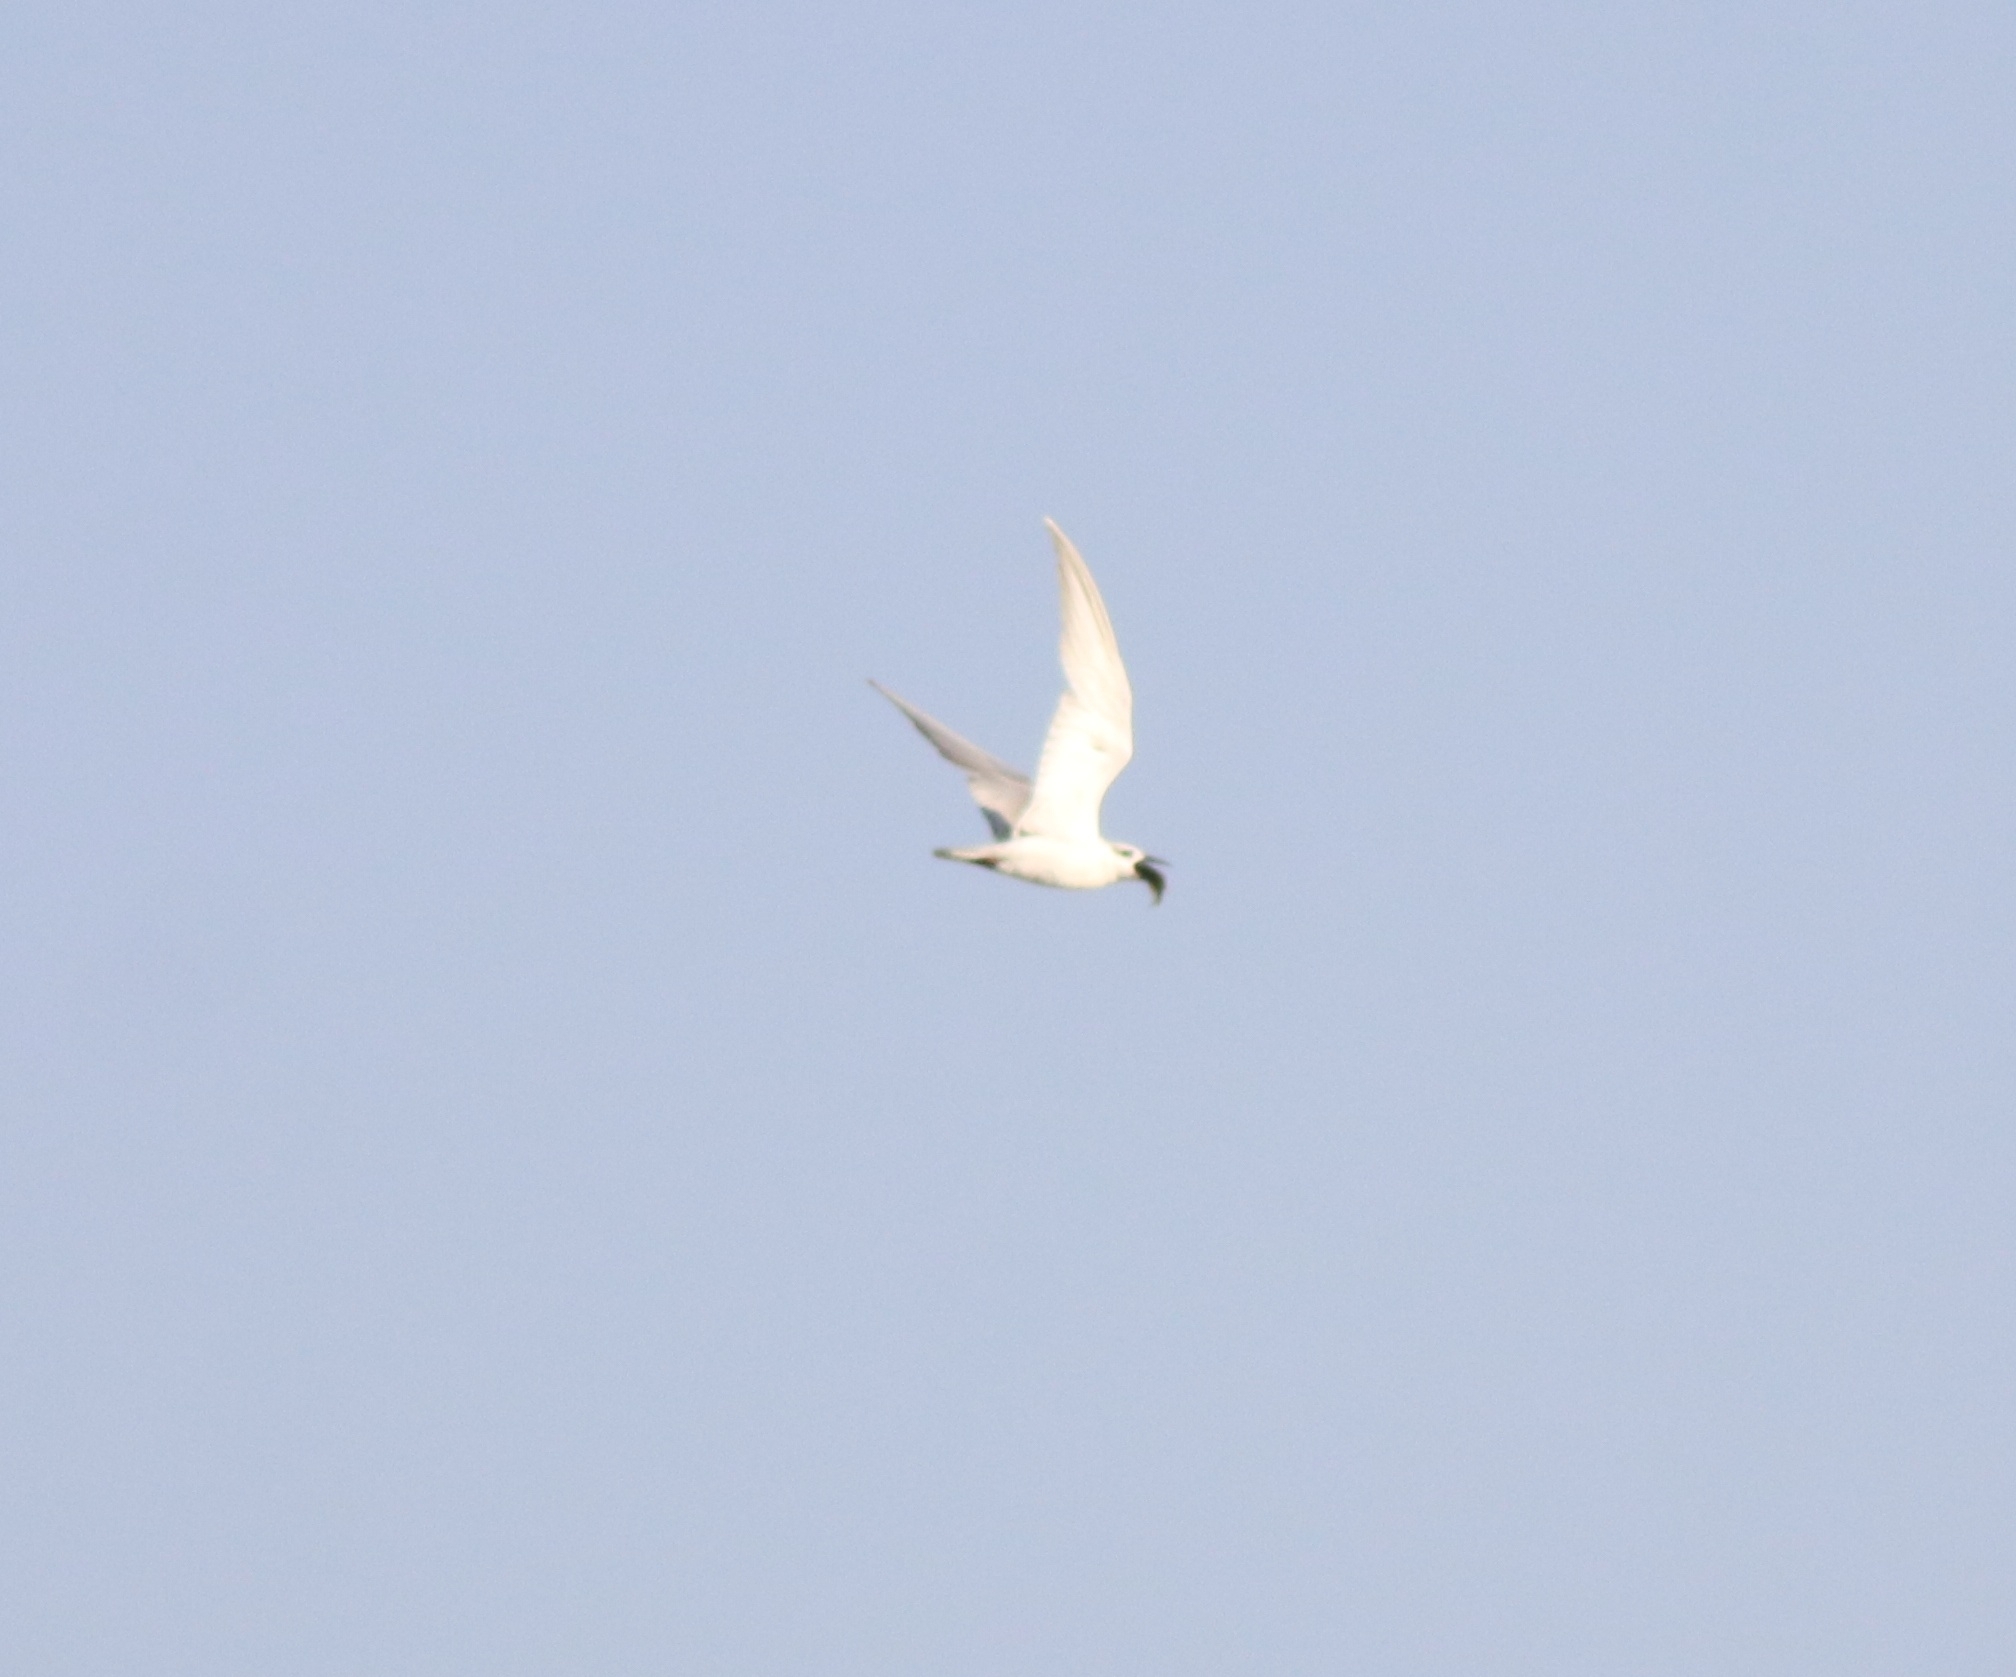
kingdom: Animalia
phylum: Chordata
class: Aves
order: Charadriiformes
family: Laridae
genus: Chlidonias
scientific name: Chlidonias hybrida
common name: Whiskered tern
